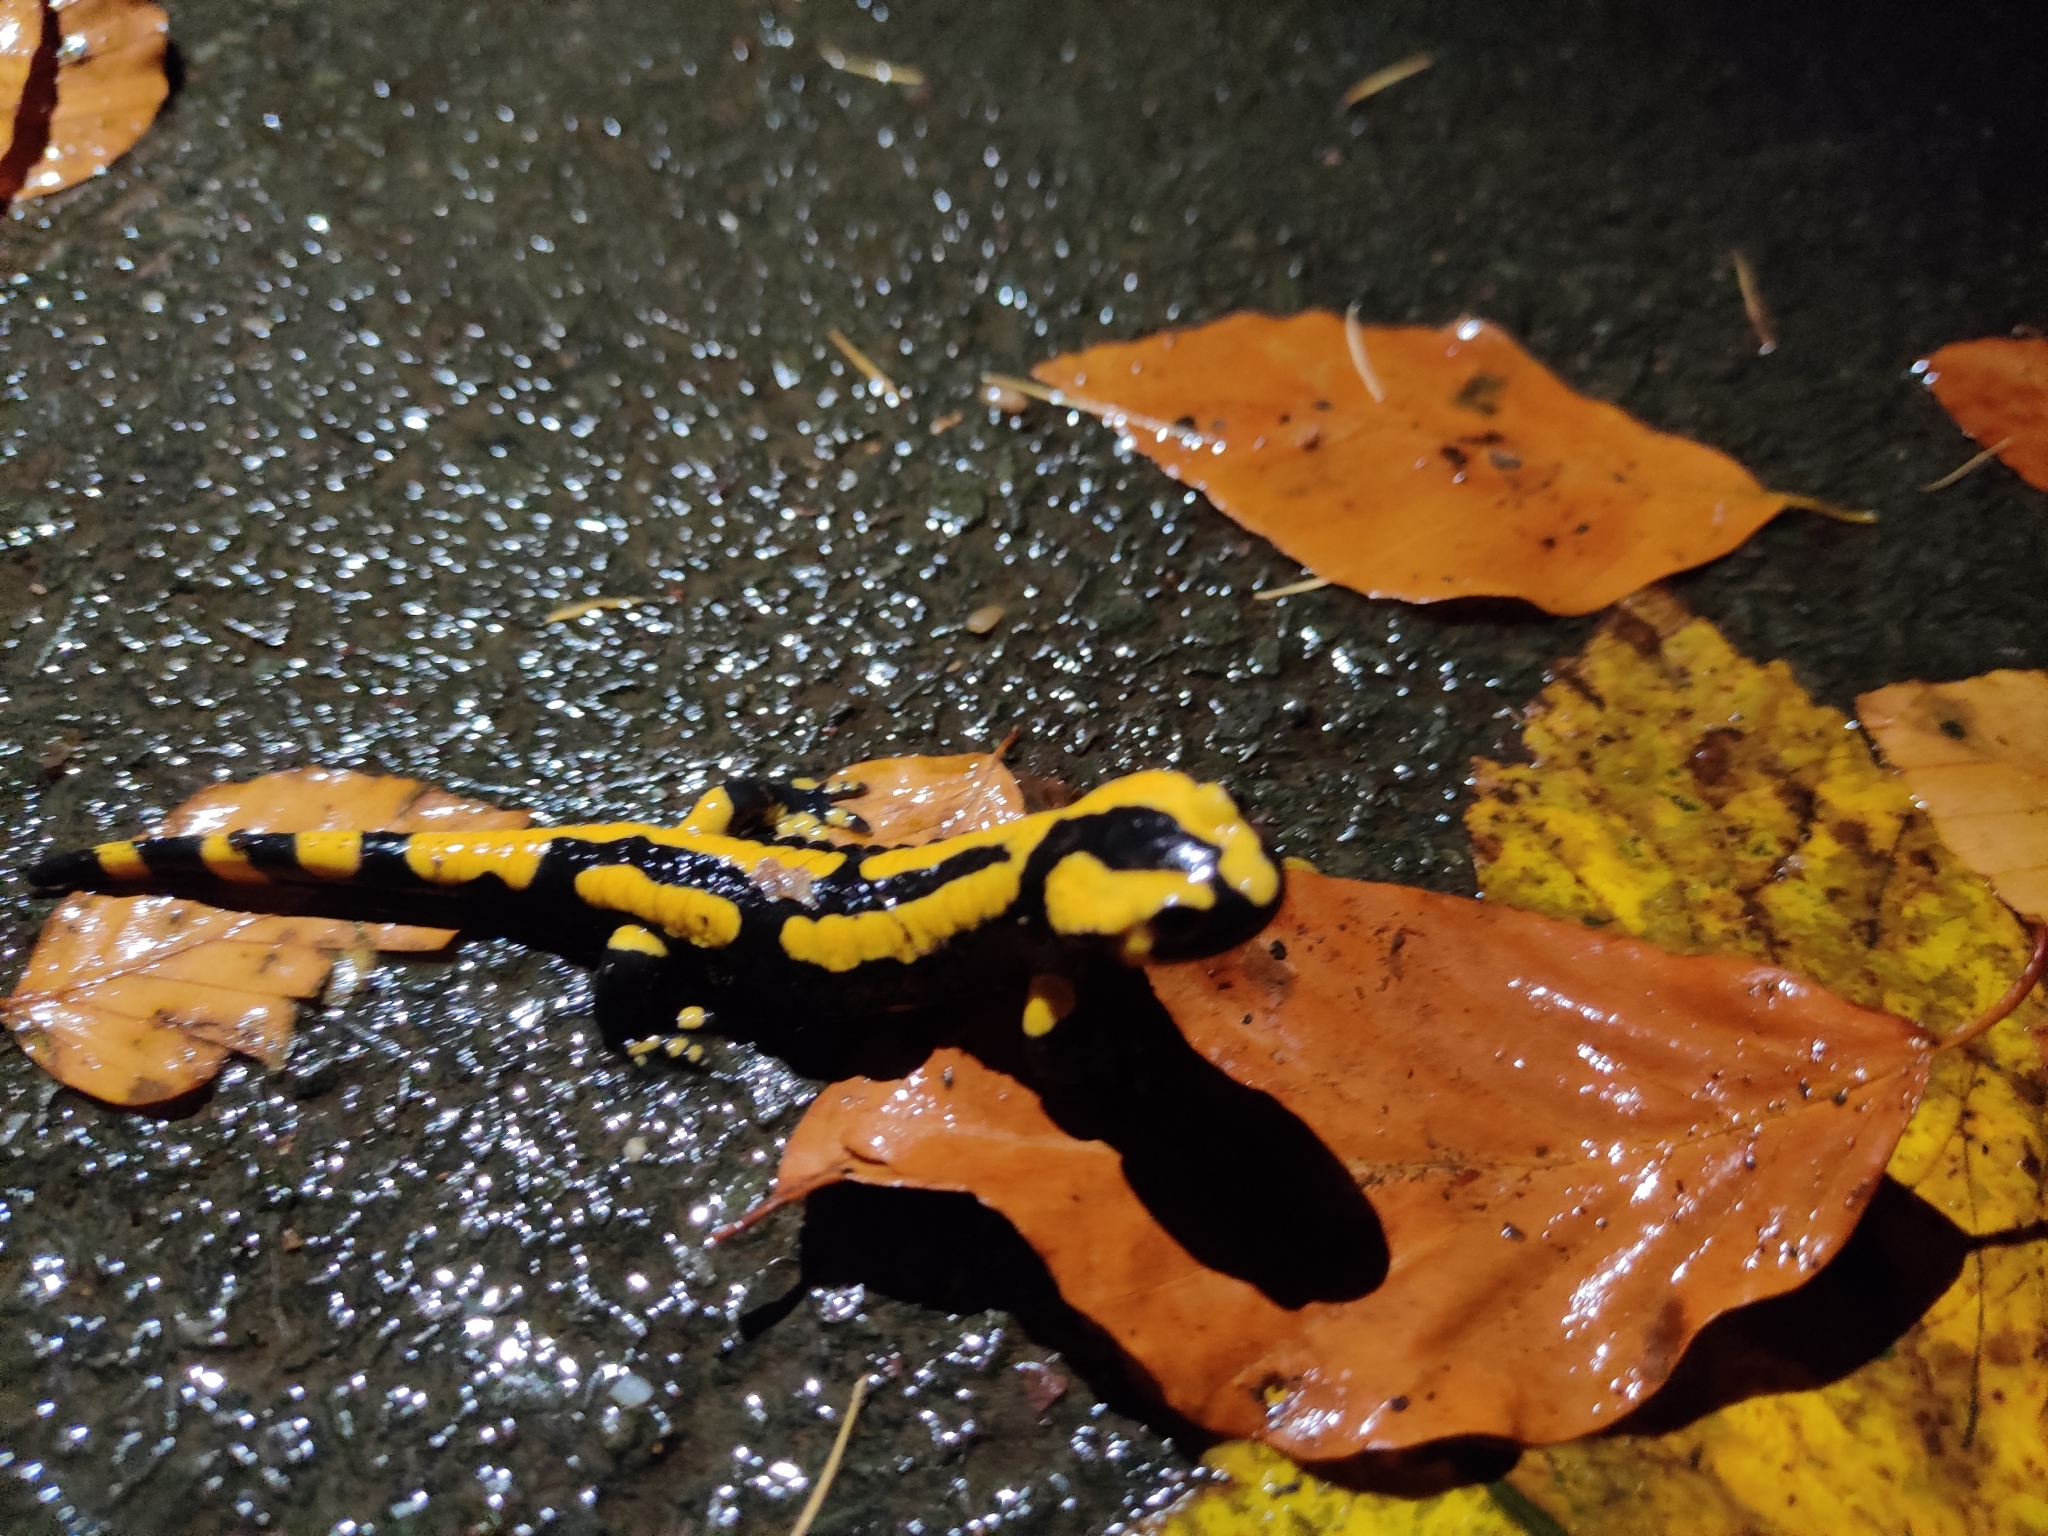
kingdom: Animalia
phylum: Chordata
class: Amphibia
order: Caudata
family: Salamandridae
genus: Salamandra
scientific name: Salamandra salamandra
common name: Fire salamander
